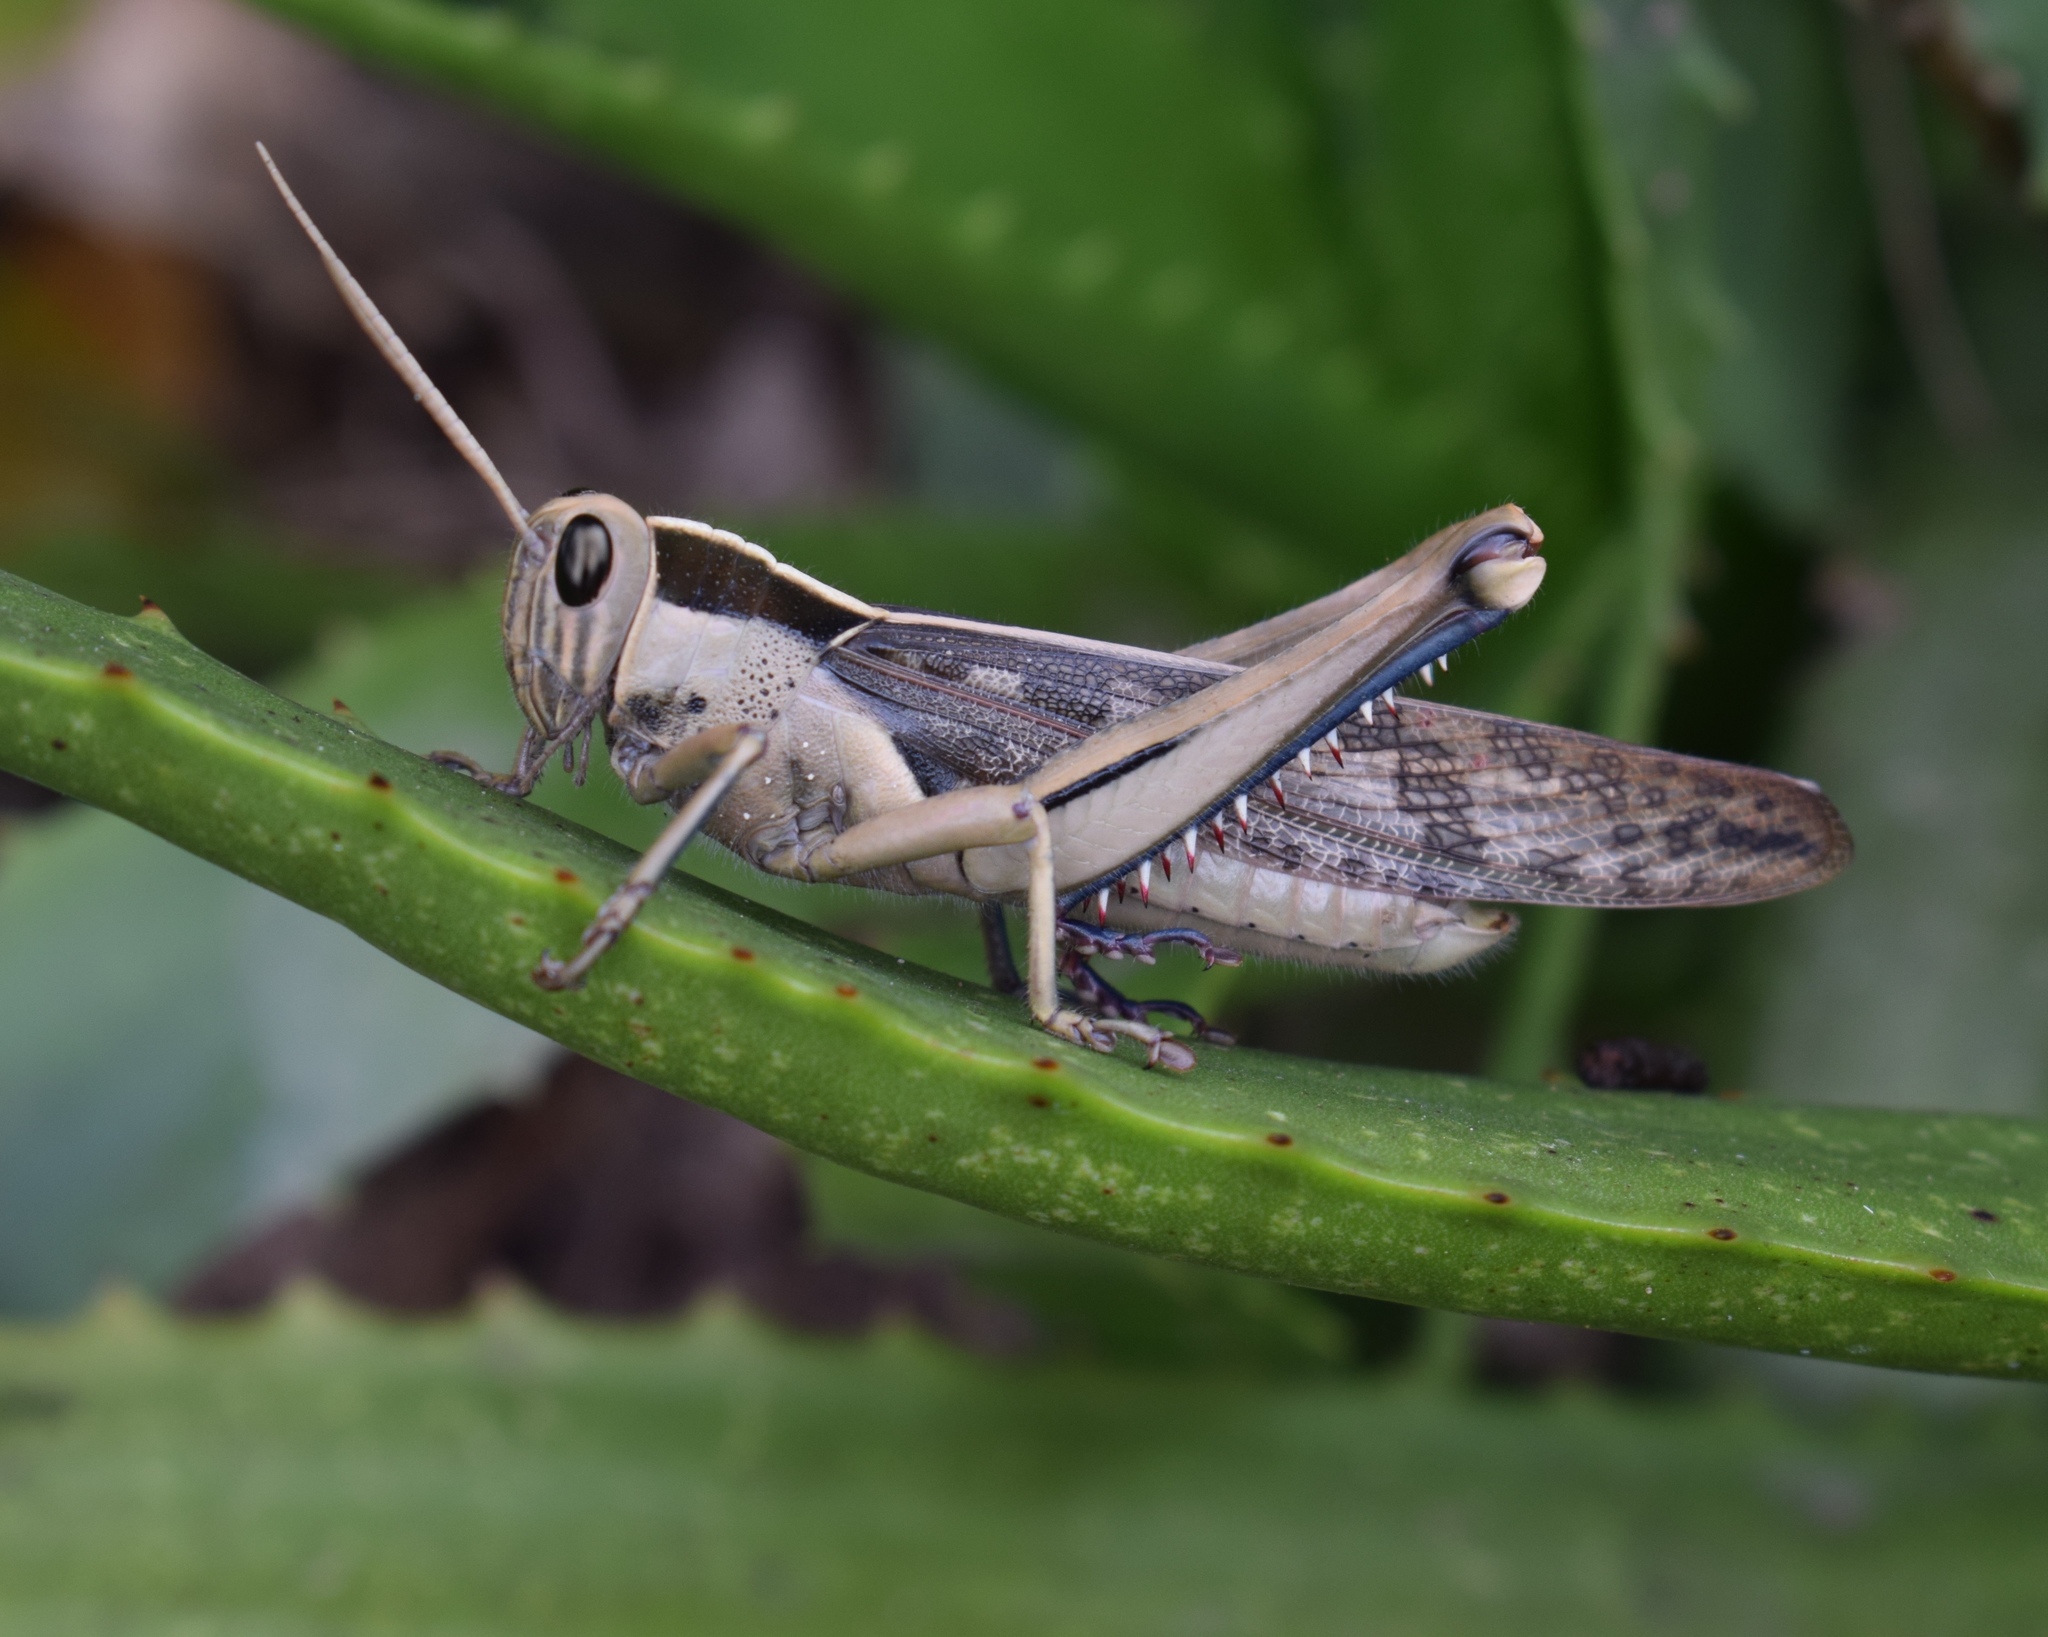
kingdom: Animalia
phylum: Arthropoda
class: Insecta
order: Orthoptera
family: Acrididae
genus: Acanthacris
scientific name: Acanthacris ruficornis
